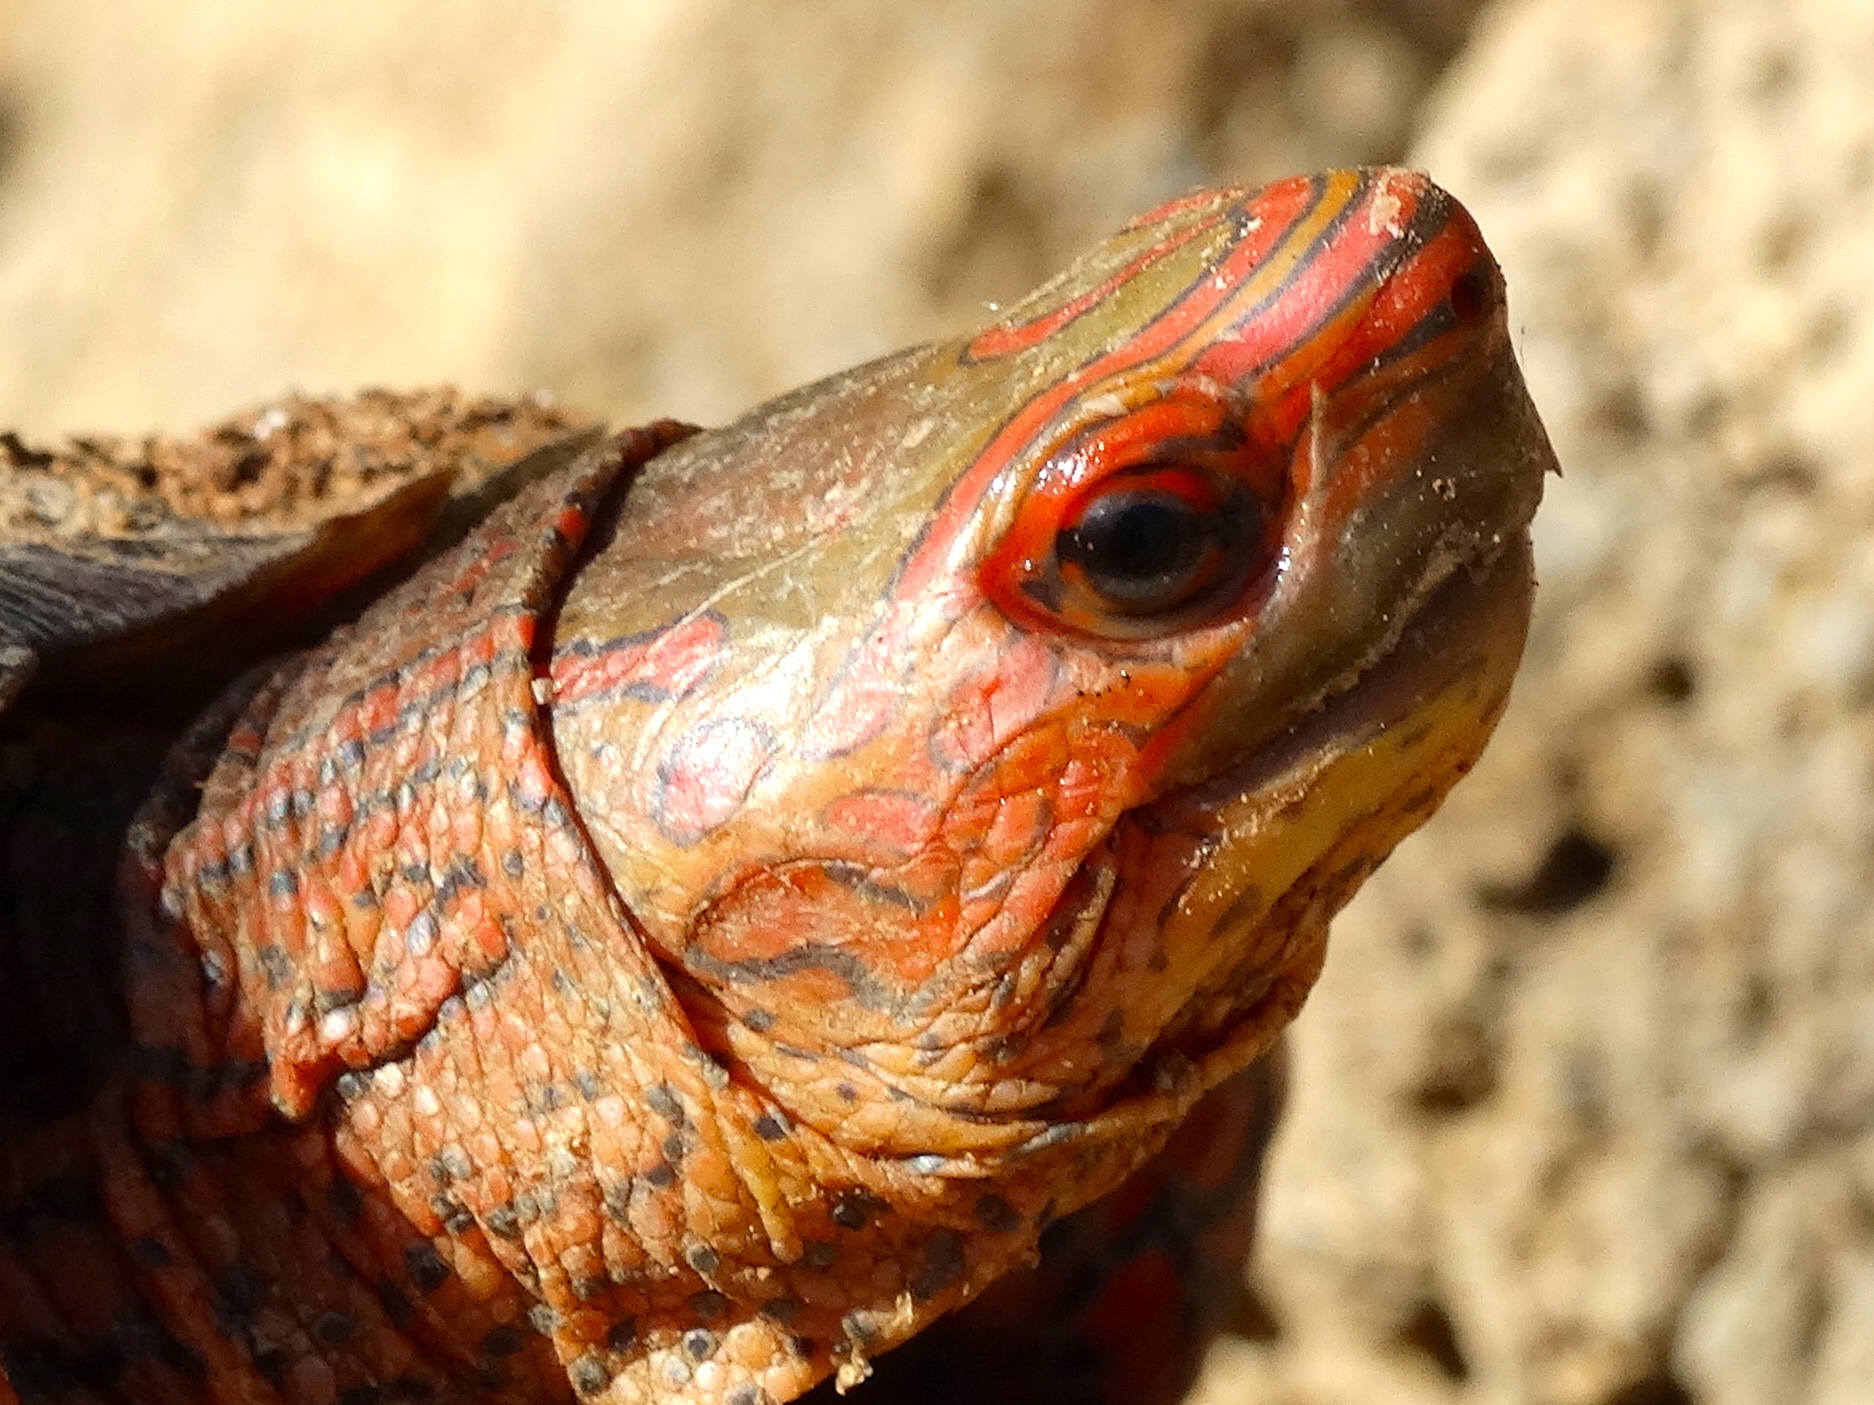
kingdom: Animalia
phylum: Chordata
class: Testudines
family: Geoemydidae
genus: Rhinoclemmys
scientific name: Rhinoclemmys pulcherrima
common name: Painted wood turtle
